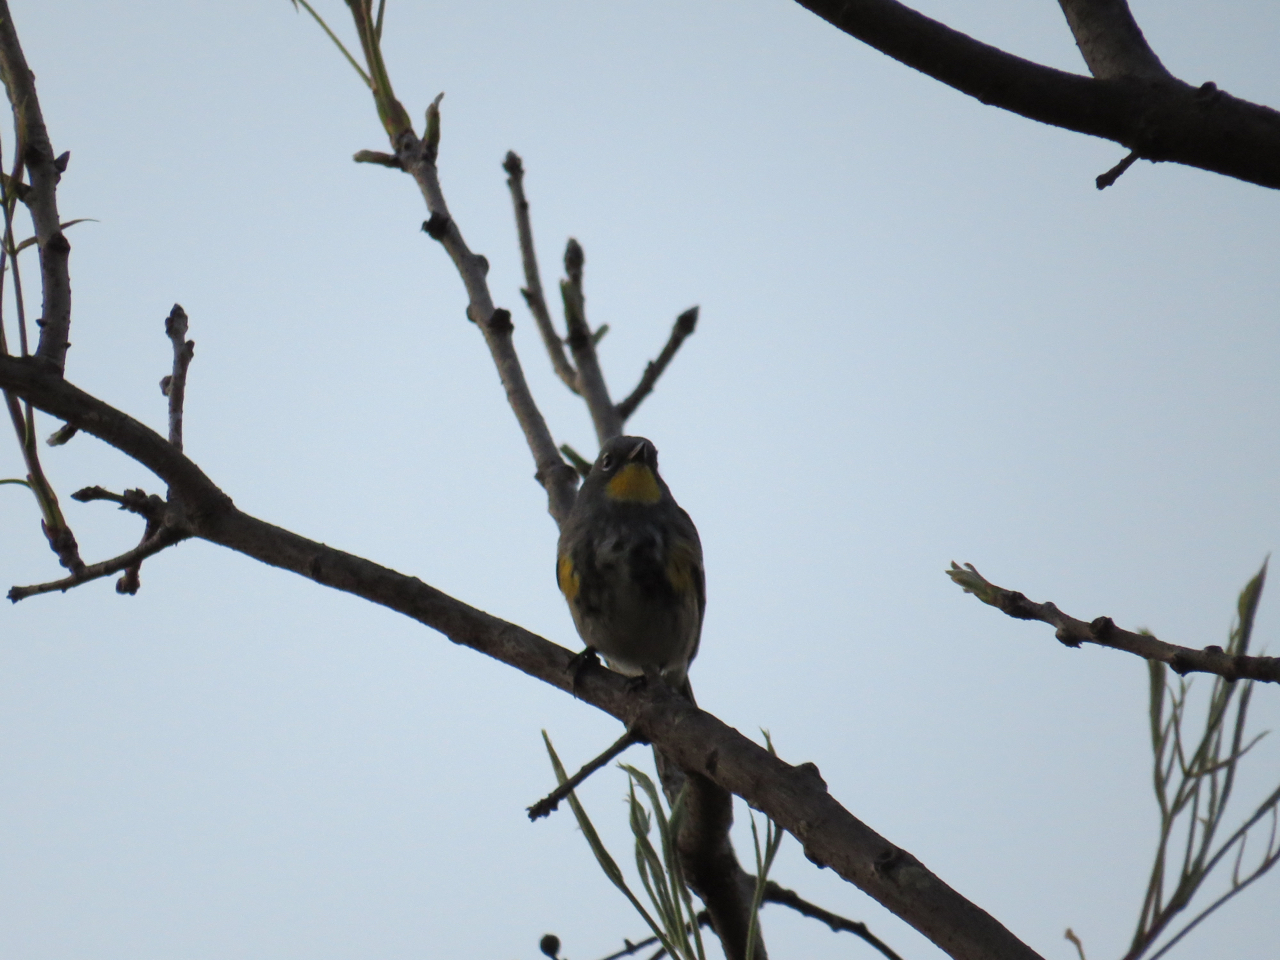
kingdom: Animalia
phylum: Chordata
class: Aves
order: Passeriformes
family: Parulidae
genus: Setophaga
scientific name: Setophaga auduboni
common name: Audubon's warbler
